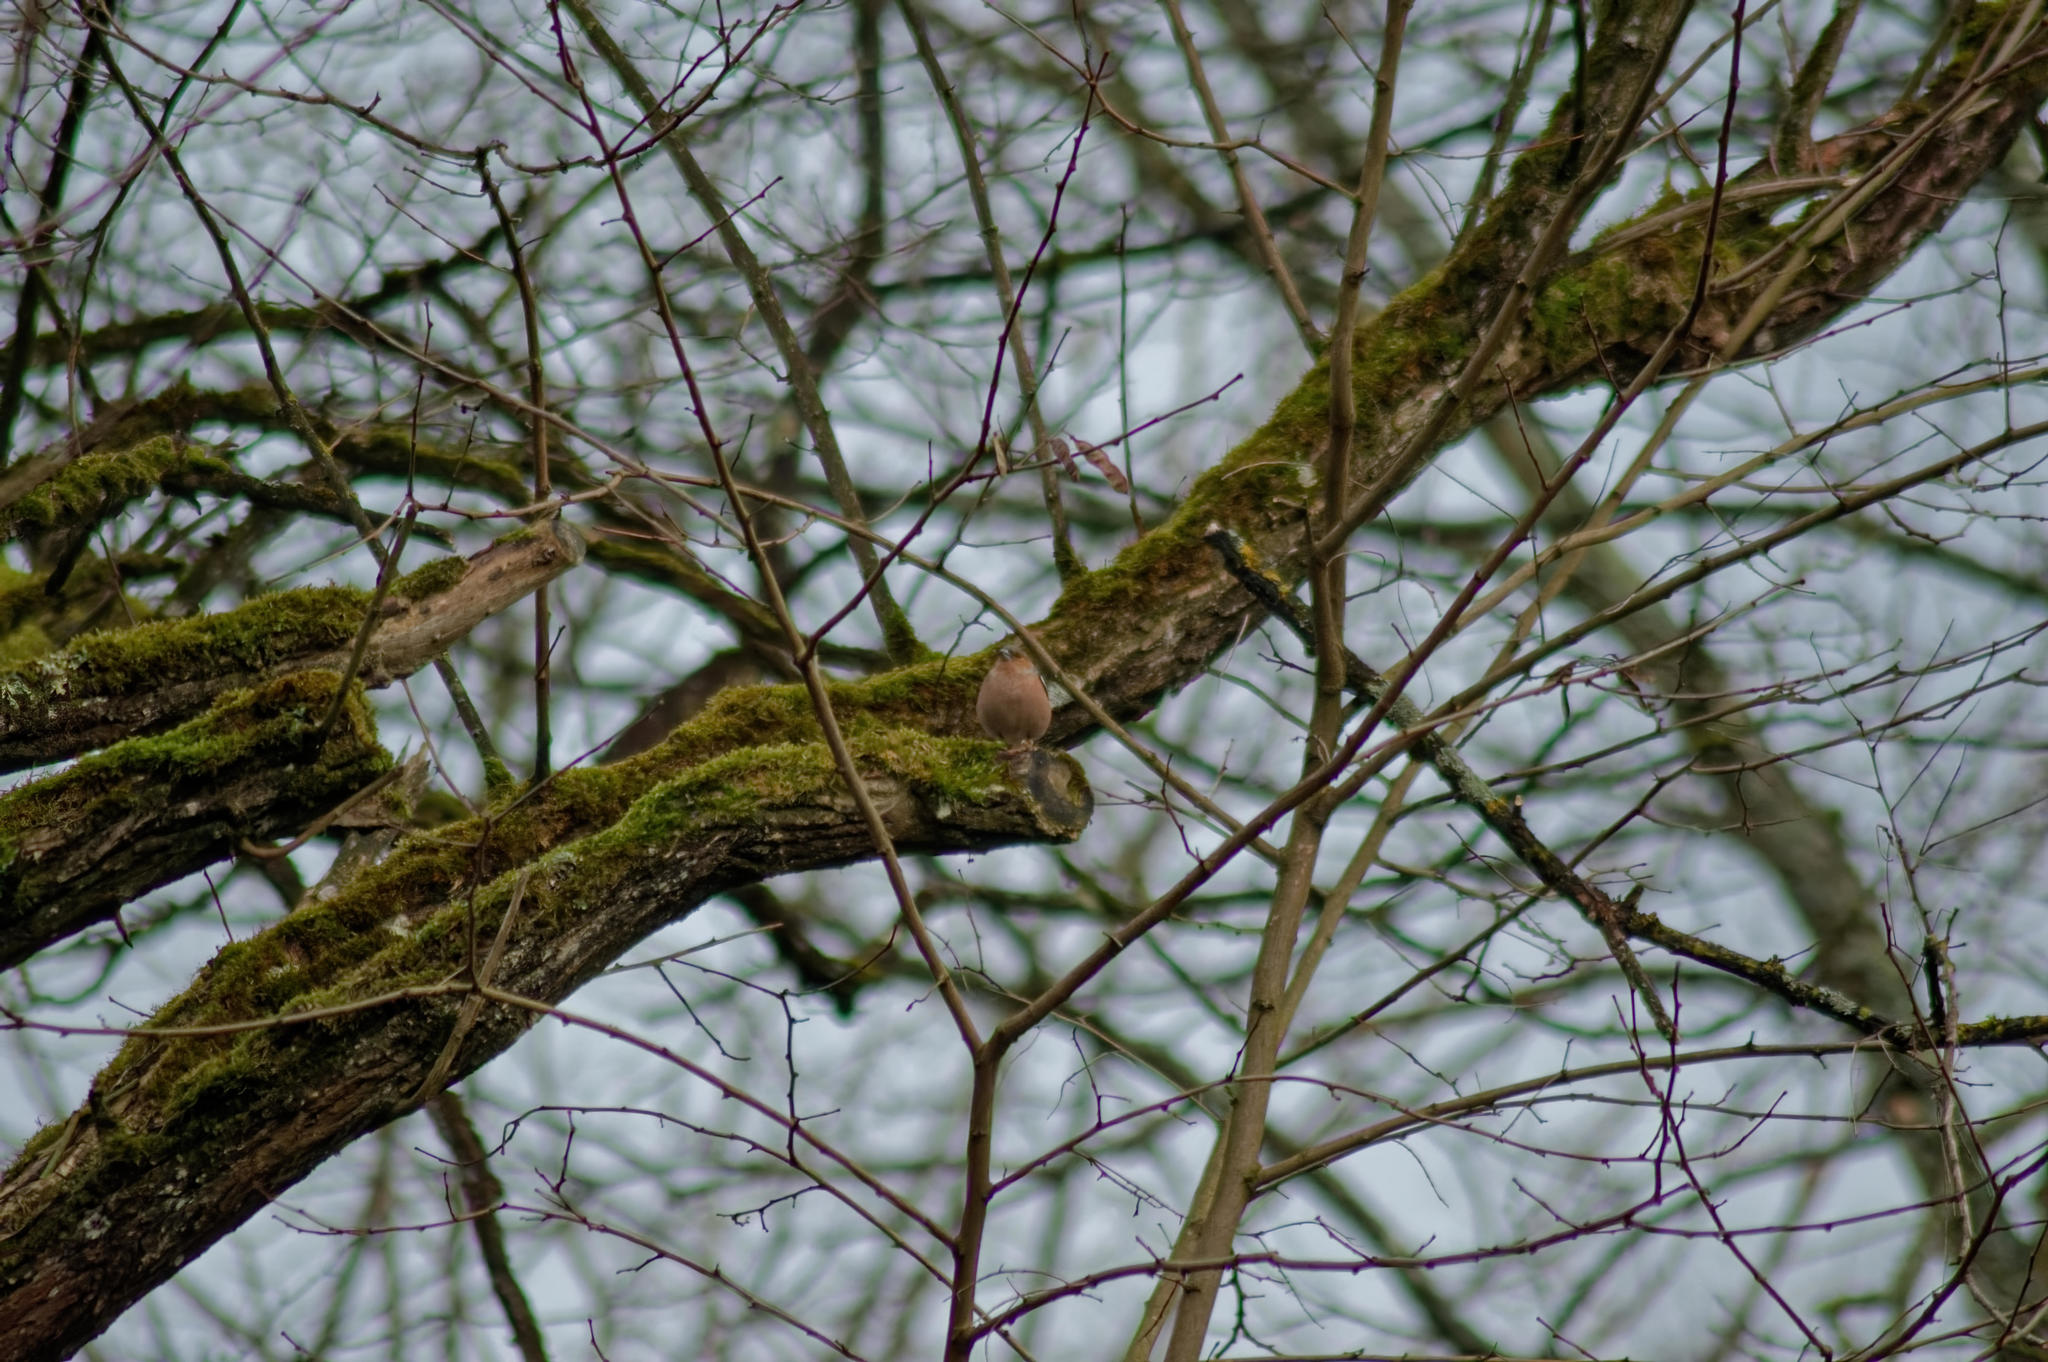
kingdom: Animalia
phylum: Chordata
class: Aves
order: Passeriformes
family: Fringillidae
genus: Fringilla
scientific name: Fringilla coelebs
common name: Common chaffinch
